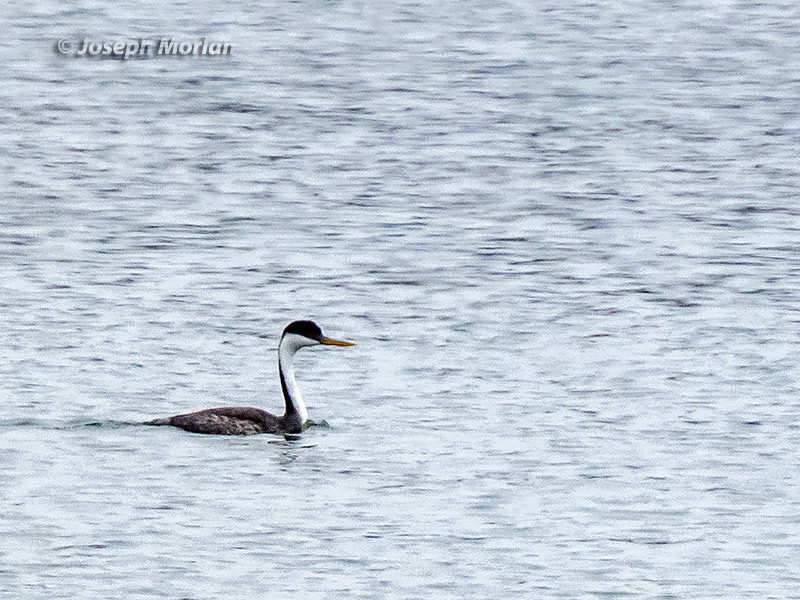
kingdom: Animalia
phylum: Chordata
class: Aves
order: Podicipediformes
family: Podicipedidae
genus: Aechmophorus
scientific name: Aechmophorus occidentalis
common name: Western grebe
